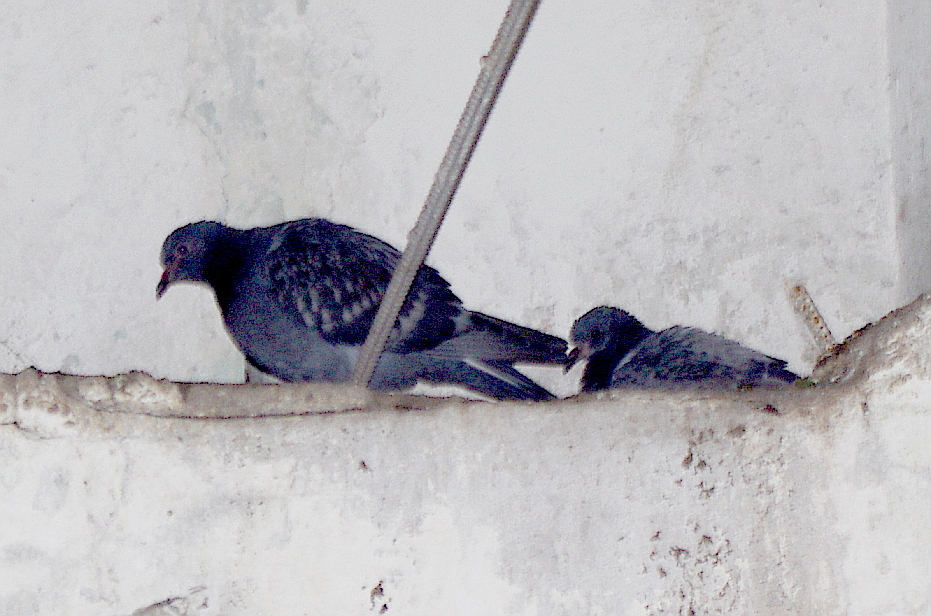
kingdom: Animalia
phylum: Chordata
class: Aves
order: Columbiformes
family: Columbidae
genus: Columba
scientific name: Columba livia
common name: Rock pigeon
